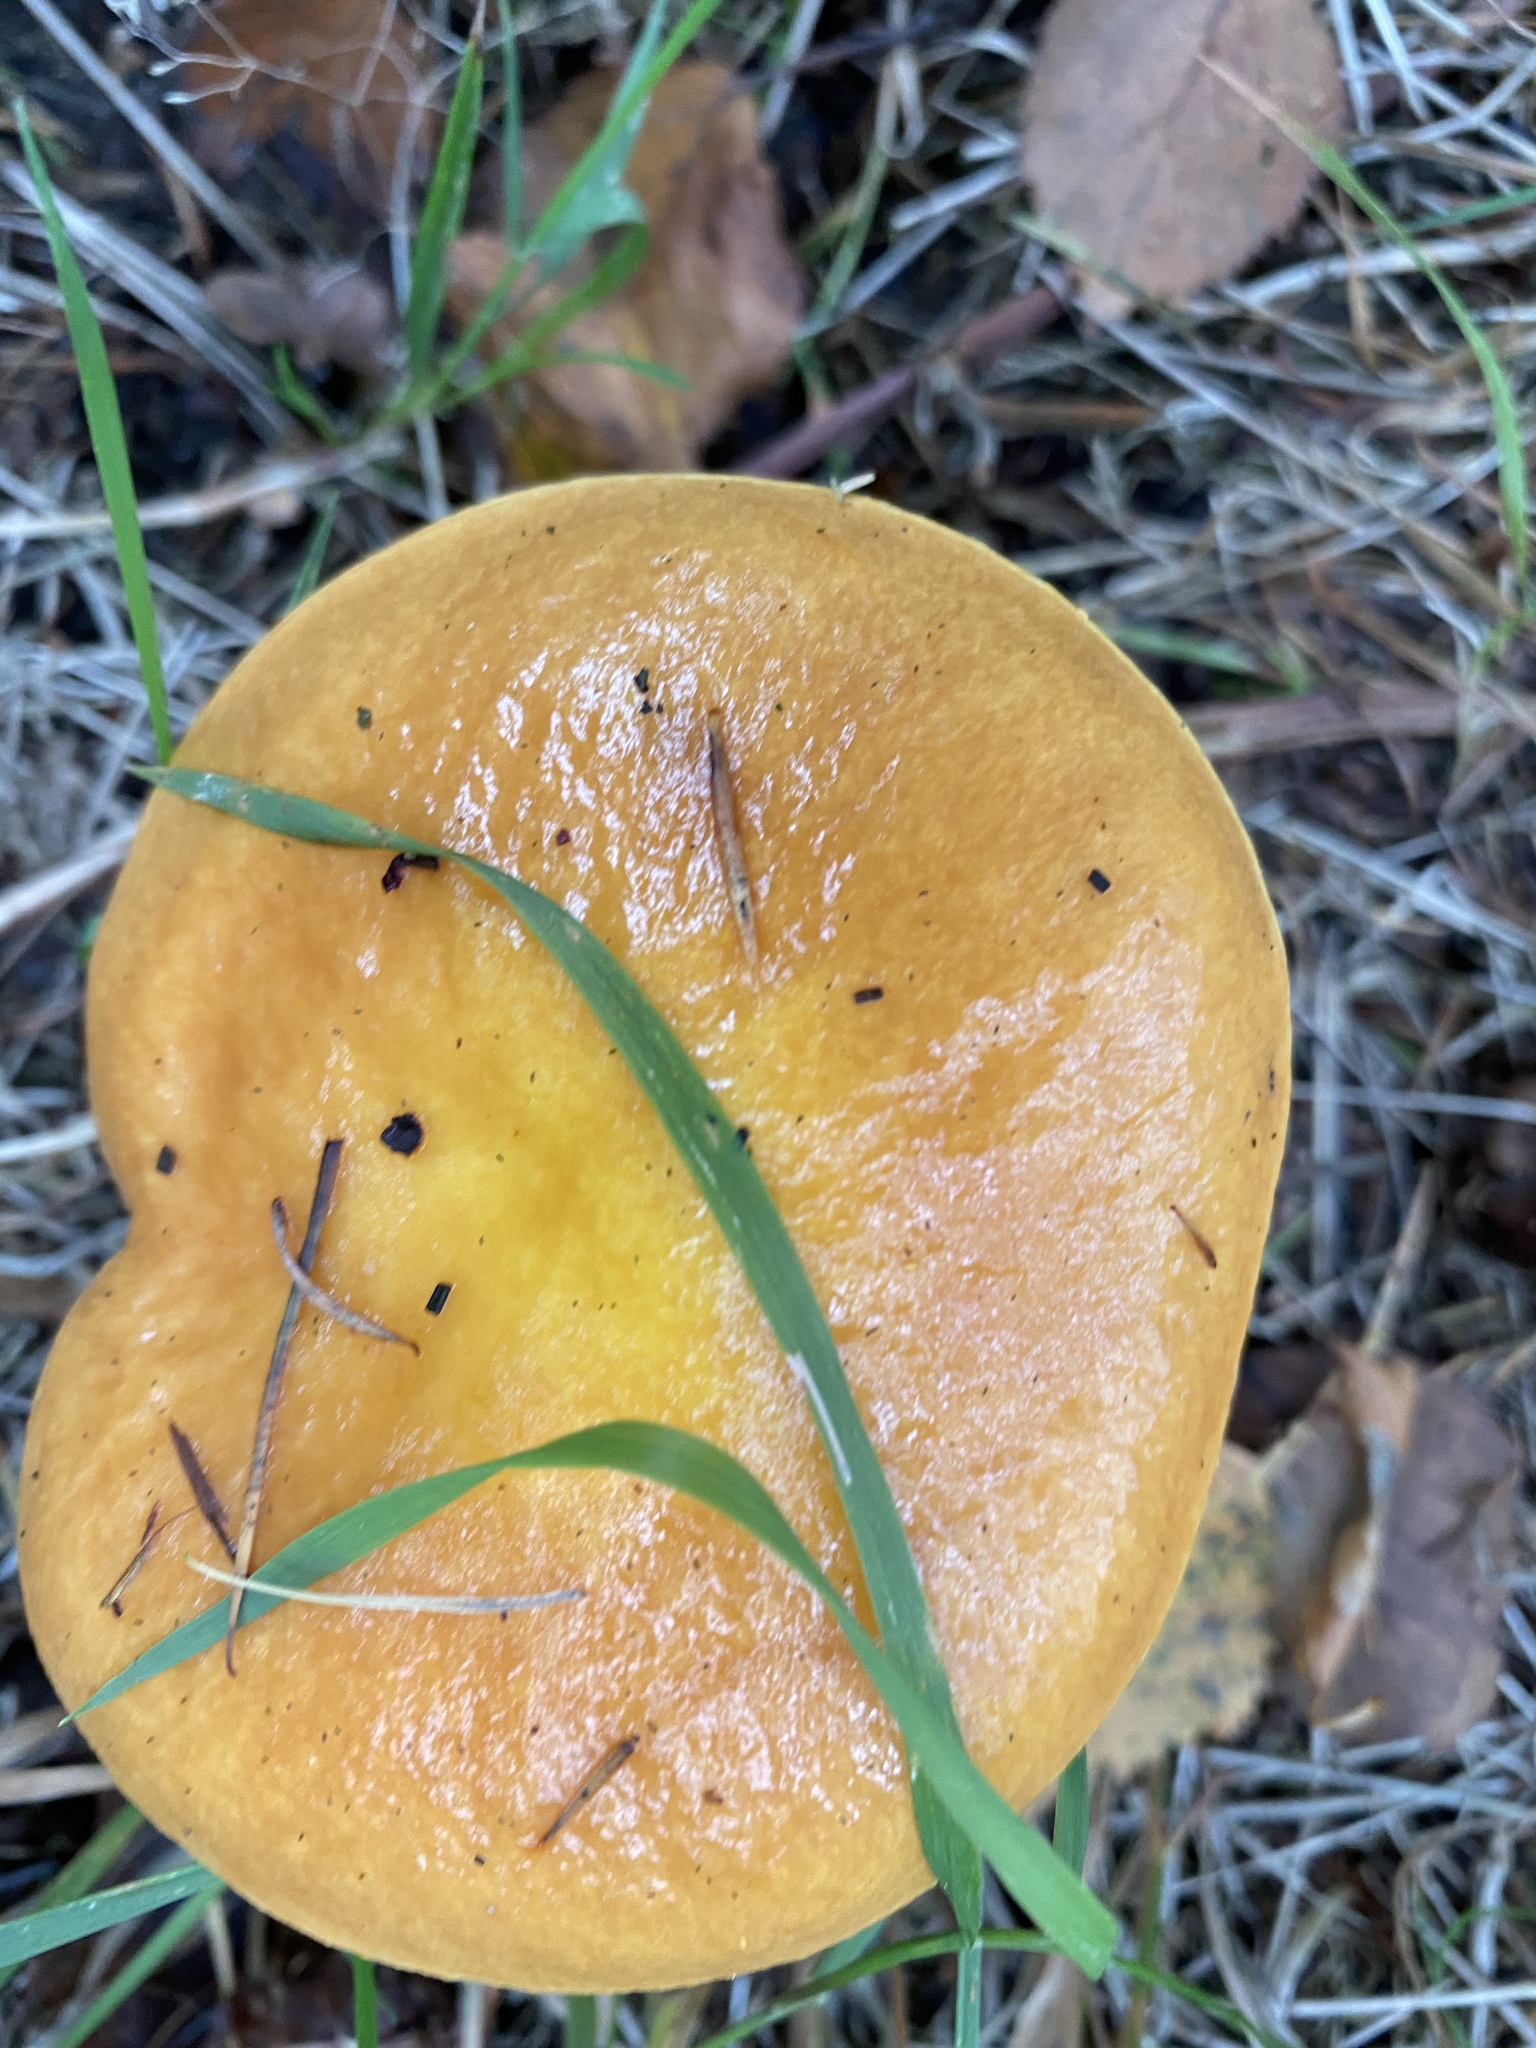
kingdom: Fungi
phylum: Basidiomycota
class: Agaricomycetes
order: Boletales
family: Suillaceae
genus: Suillus
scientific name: Suillus grevillei
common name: Larch bolete
